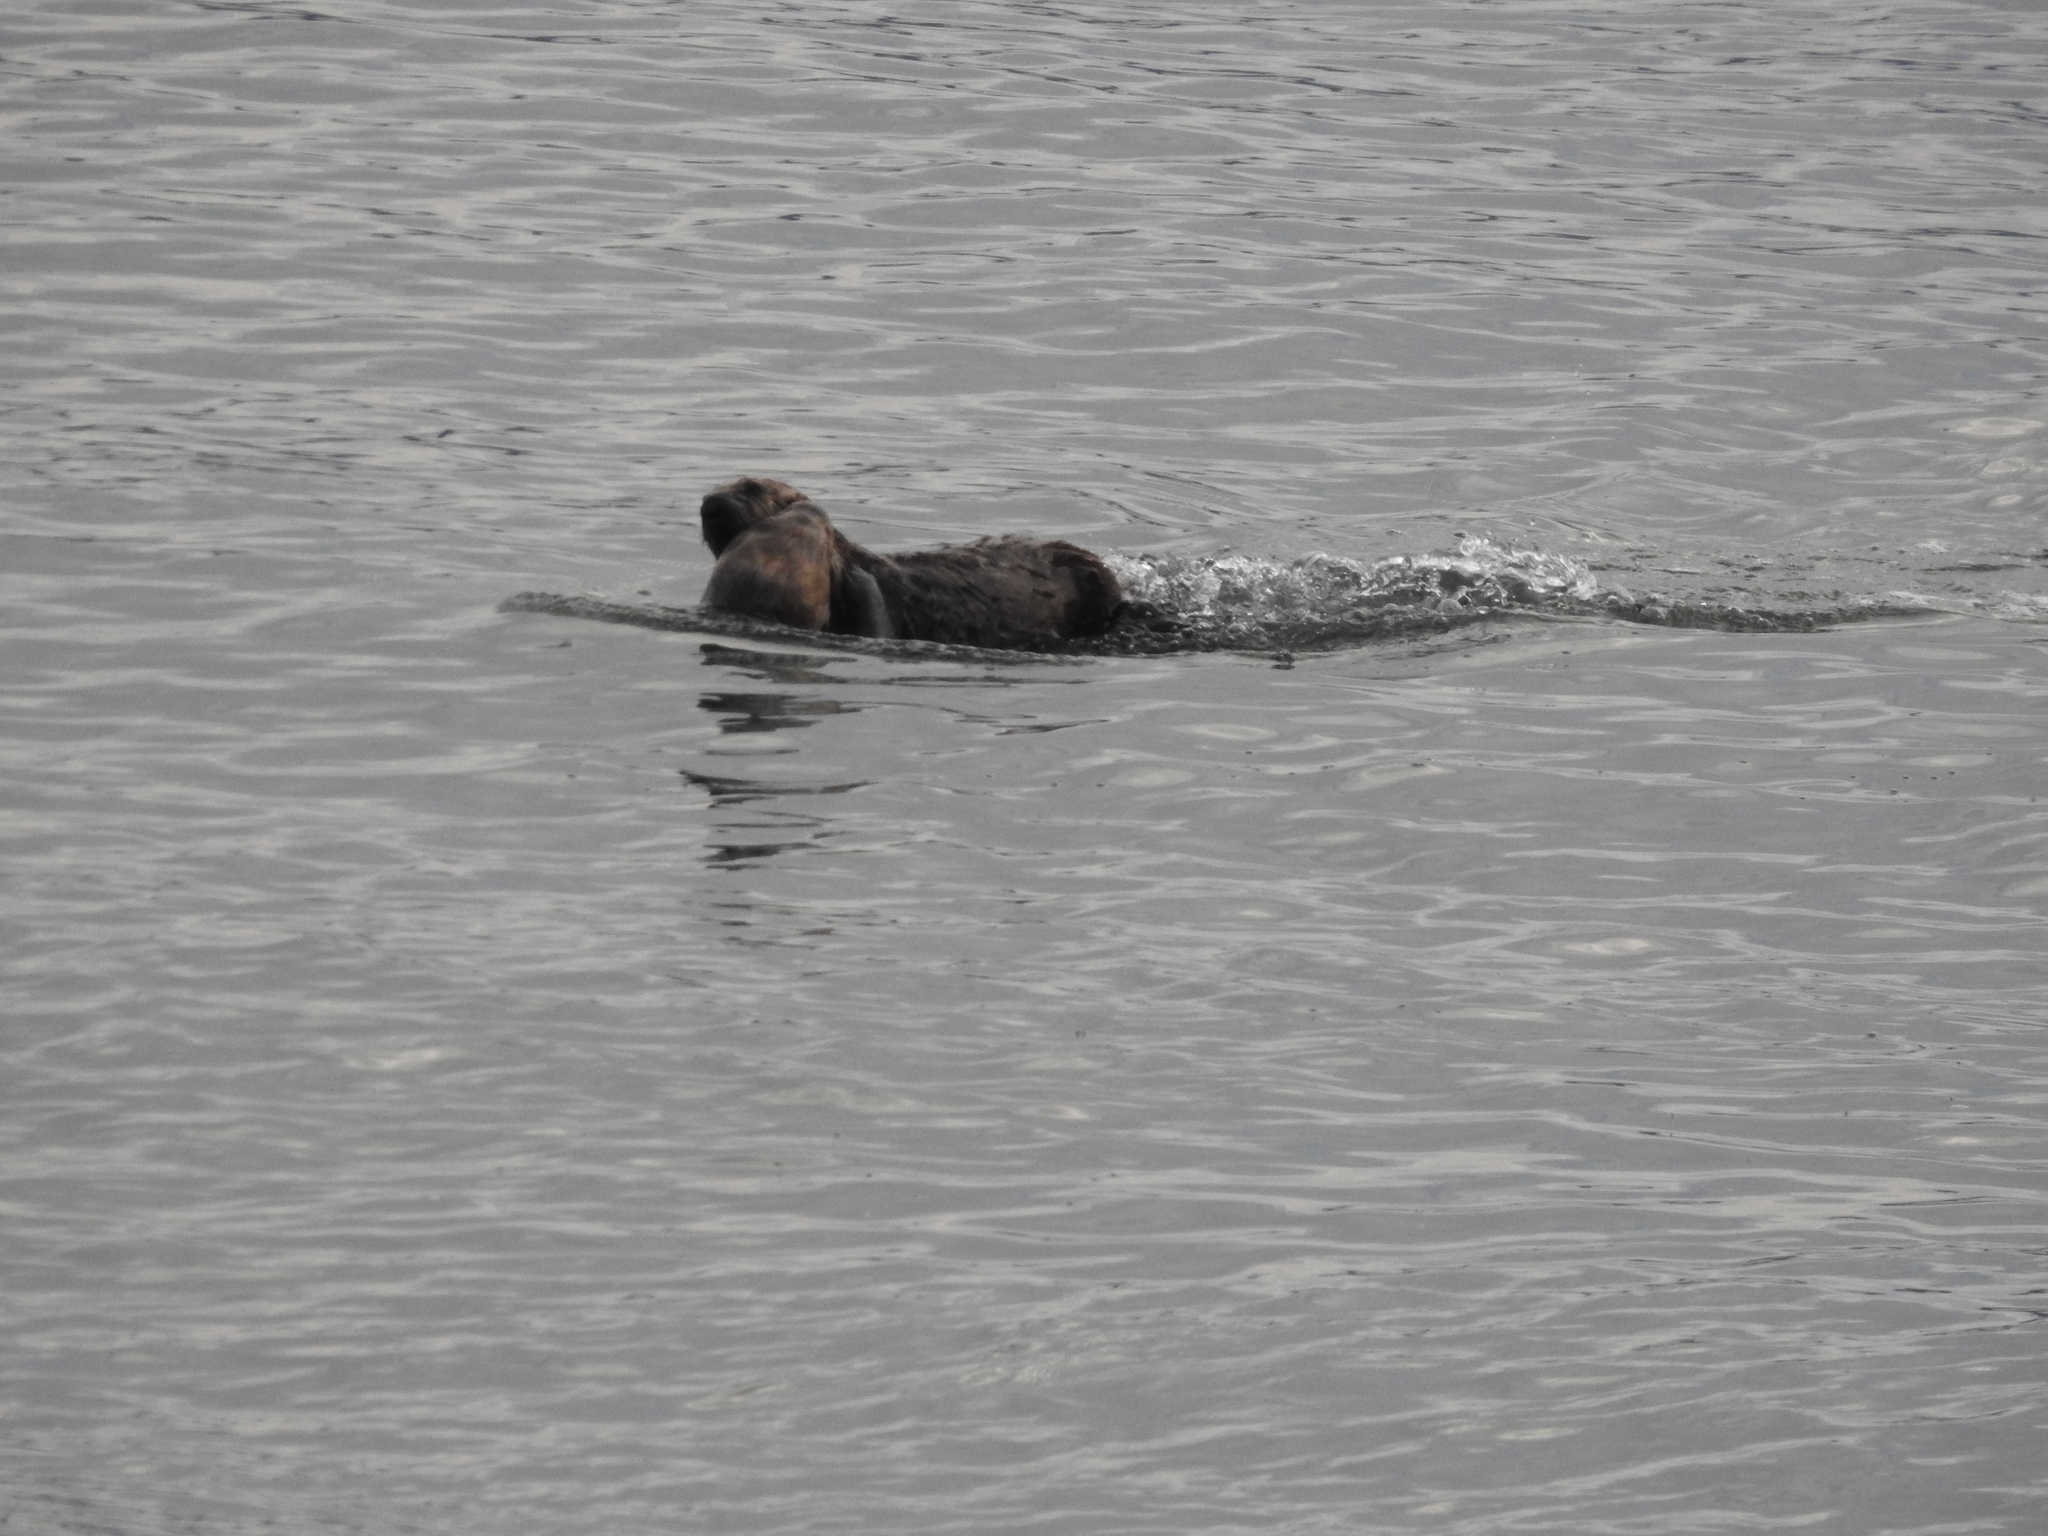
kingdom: Animalia
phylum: Chordata
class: Mammalia
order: Carnivora
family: Mustelidae
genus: Enhydra
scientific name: Enhydra lutris
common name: Sea otter
